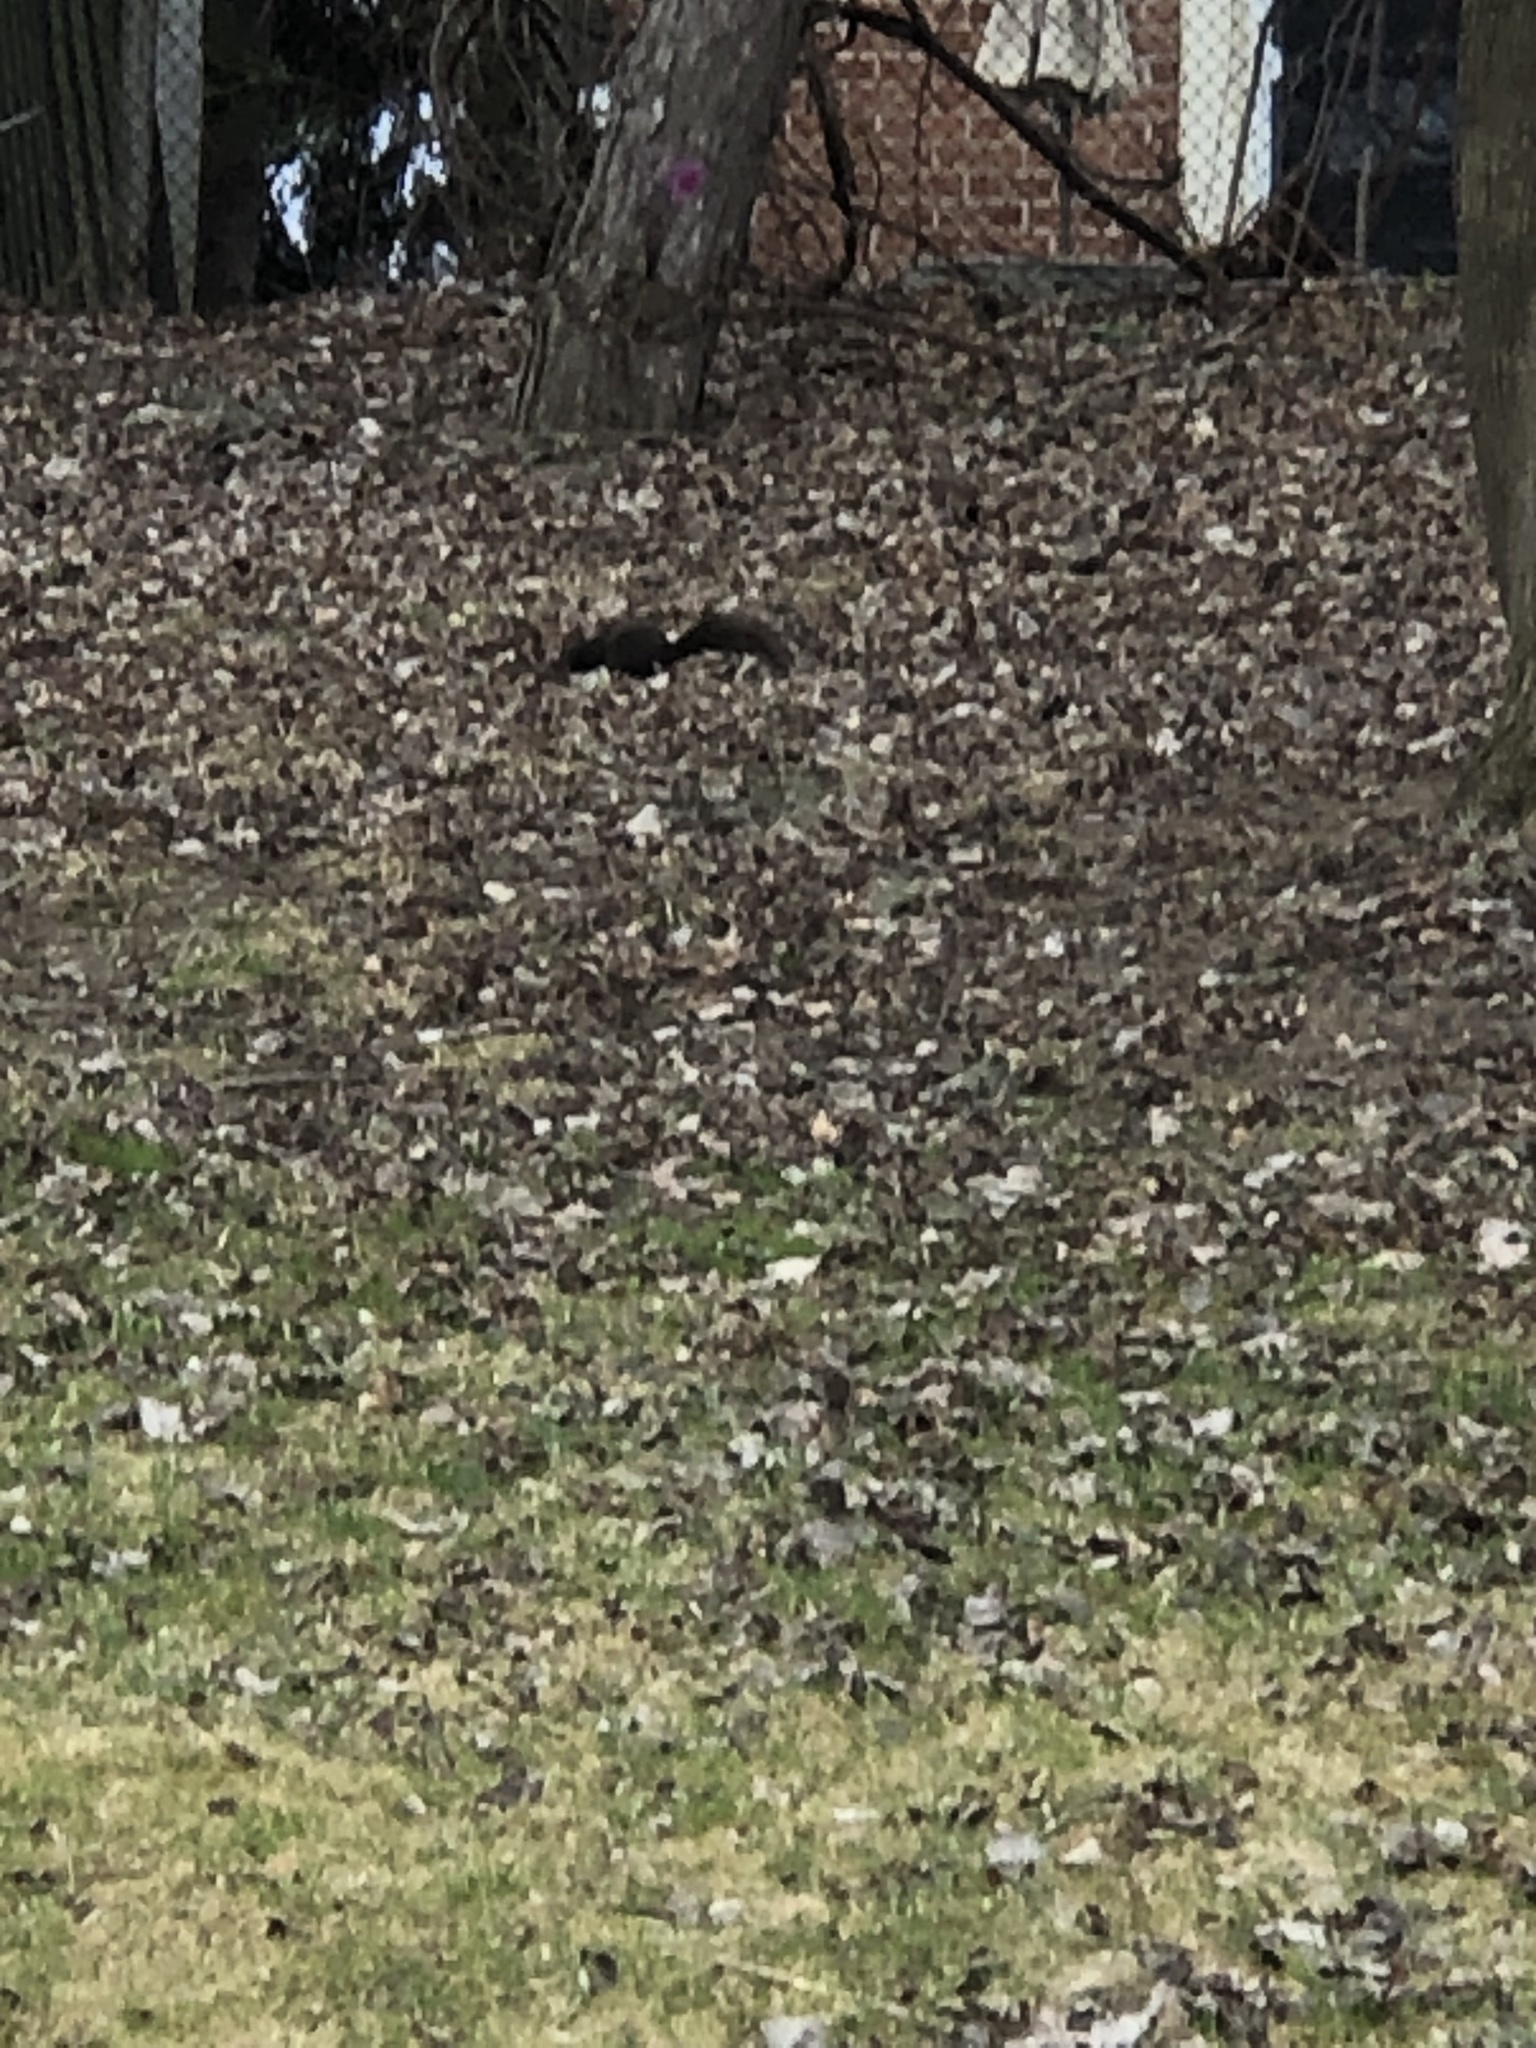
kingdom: Animalia
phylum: Chordata
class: Mammalia
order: Rodentia
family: Sciuridae
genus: Sciurus
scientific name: Sciurus carolinensis
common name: Eastern gray squirrel
